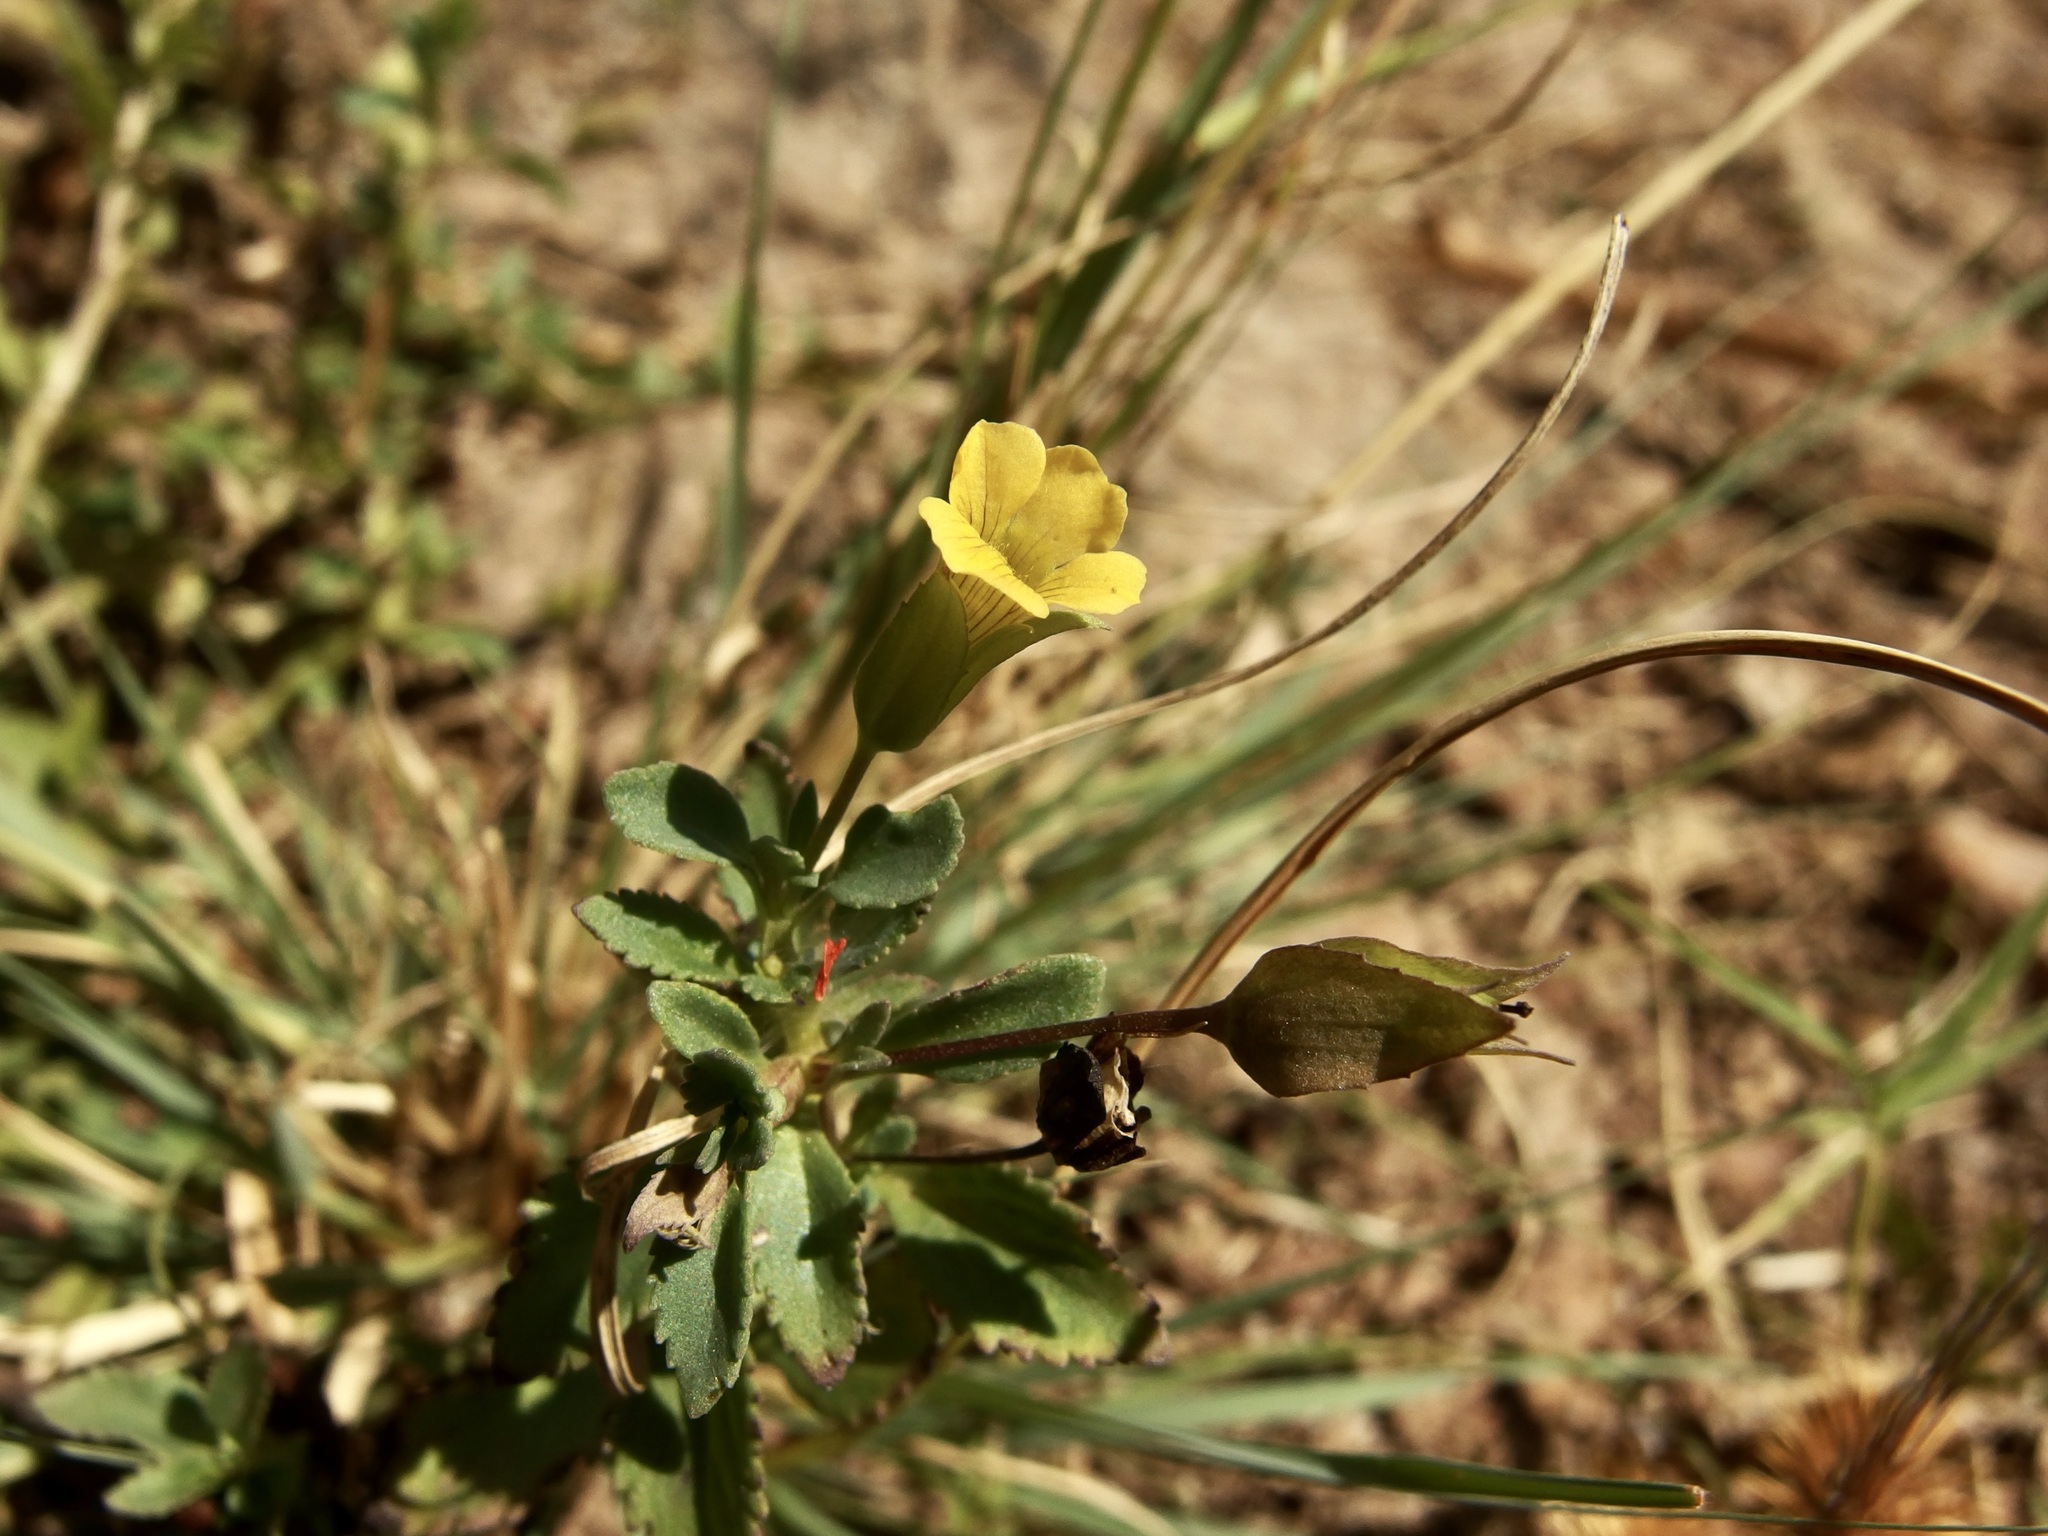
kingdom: Plantae
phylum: Tracheophyta
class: Magnoliopsida
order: Lamiales
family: Plantaginaceae
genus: Mecardonia
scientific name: Mecardonia procumbens
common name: Baby jump-up
